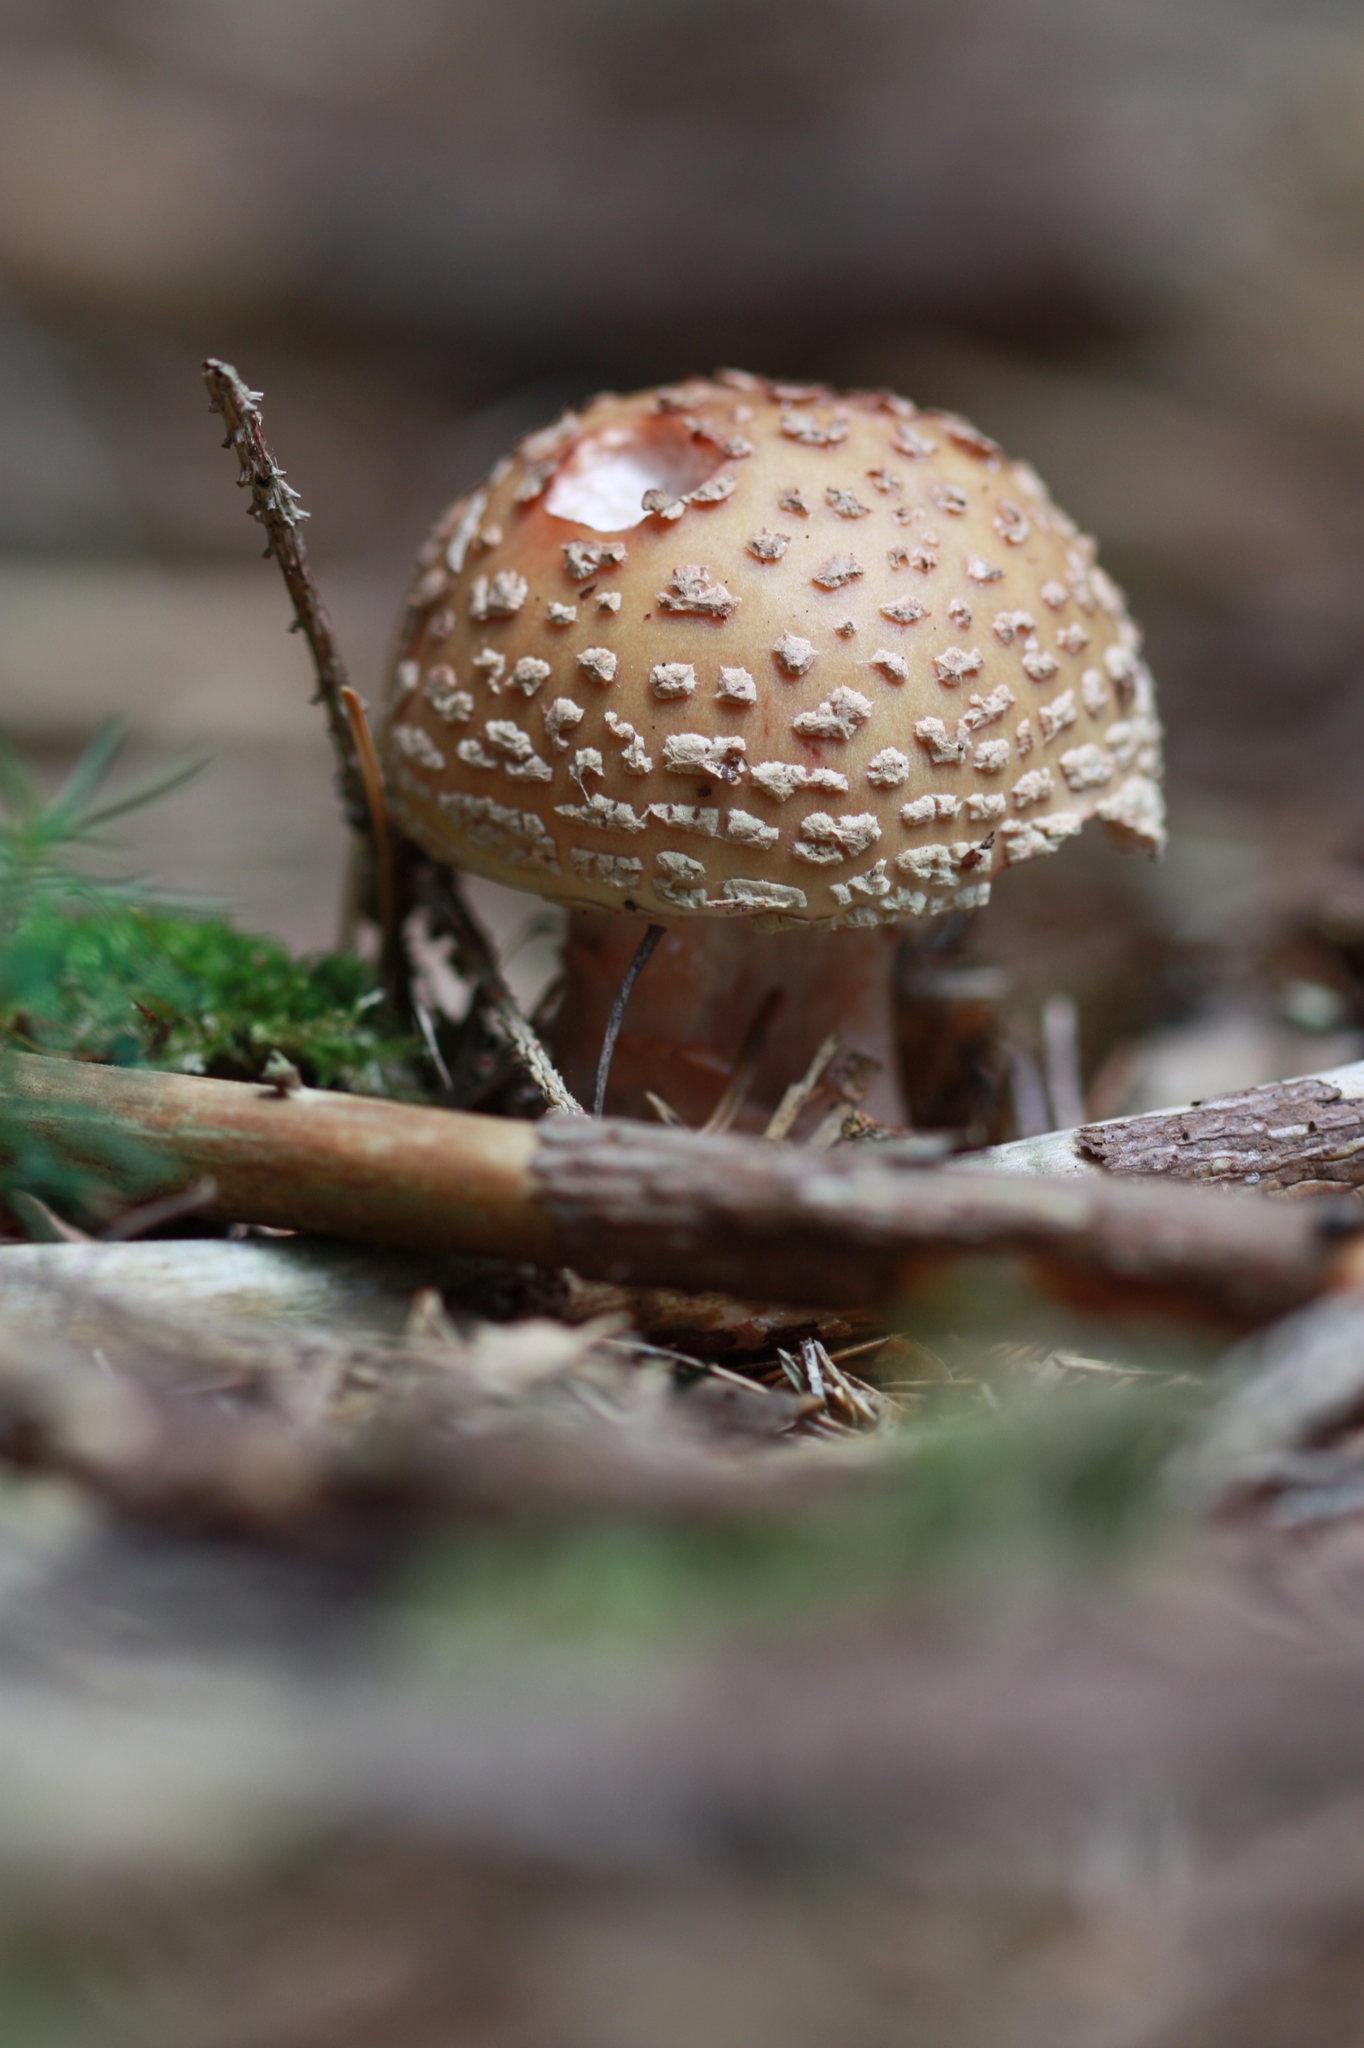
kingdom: Fungi
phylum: Basidiomycota
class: Agaricomycetes
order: Agaricales
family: Amanitaceae
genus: Amanita
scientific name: Amanita rubescens
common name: Blusher
